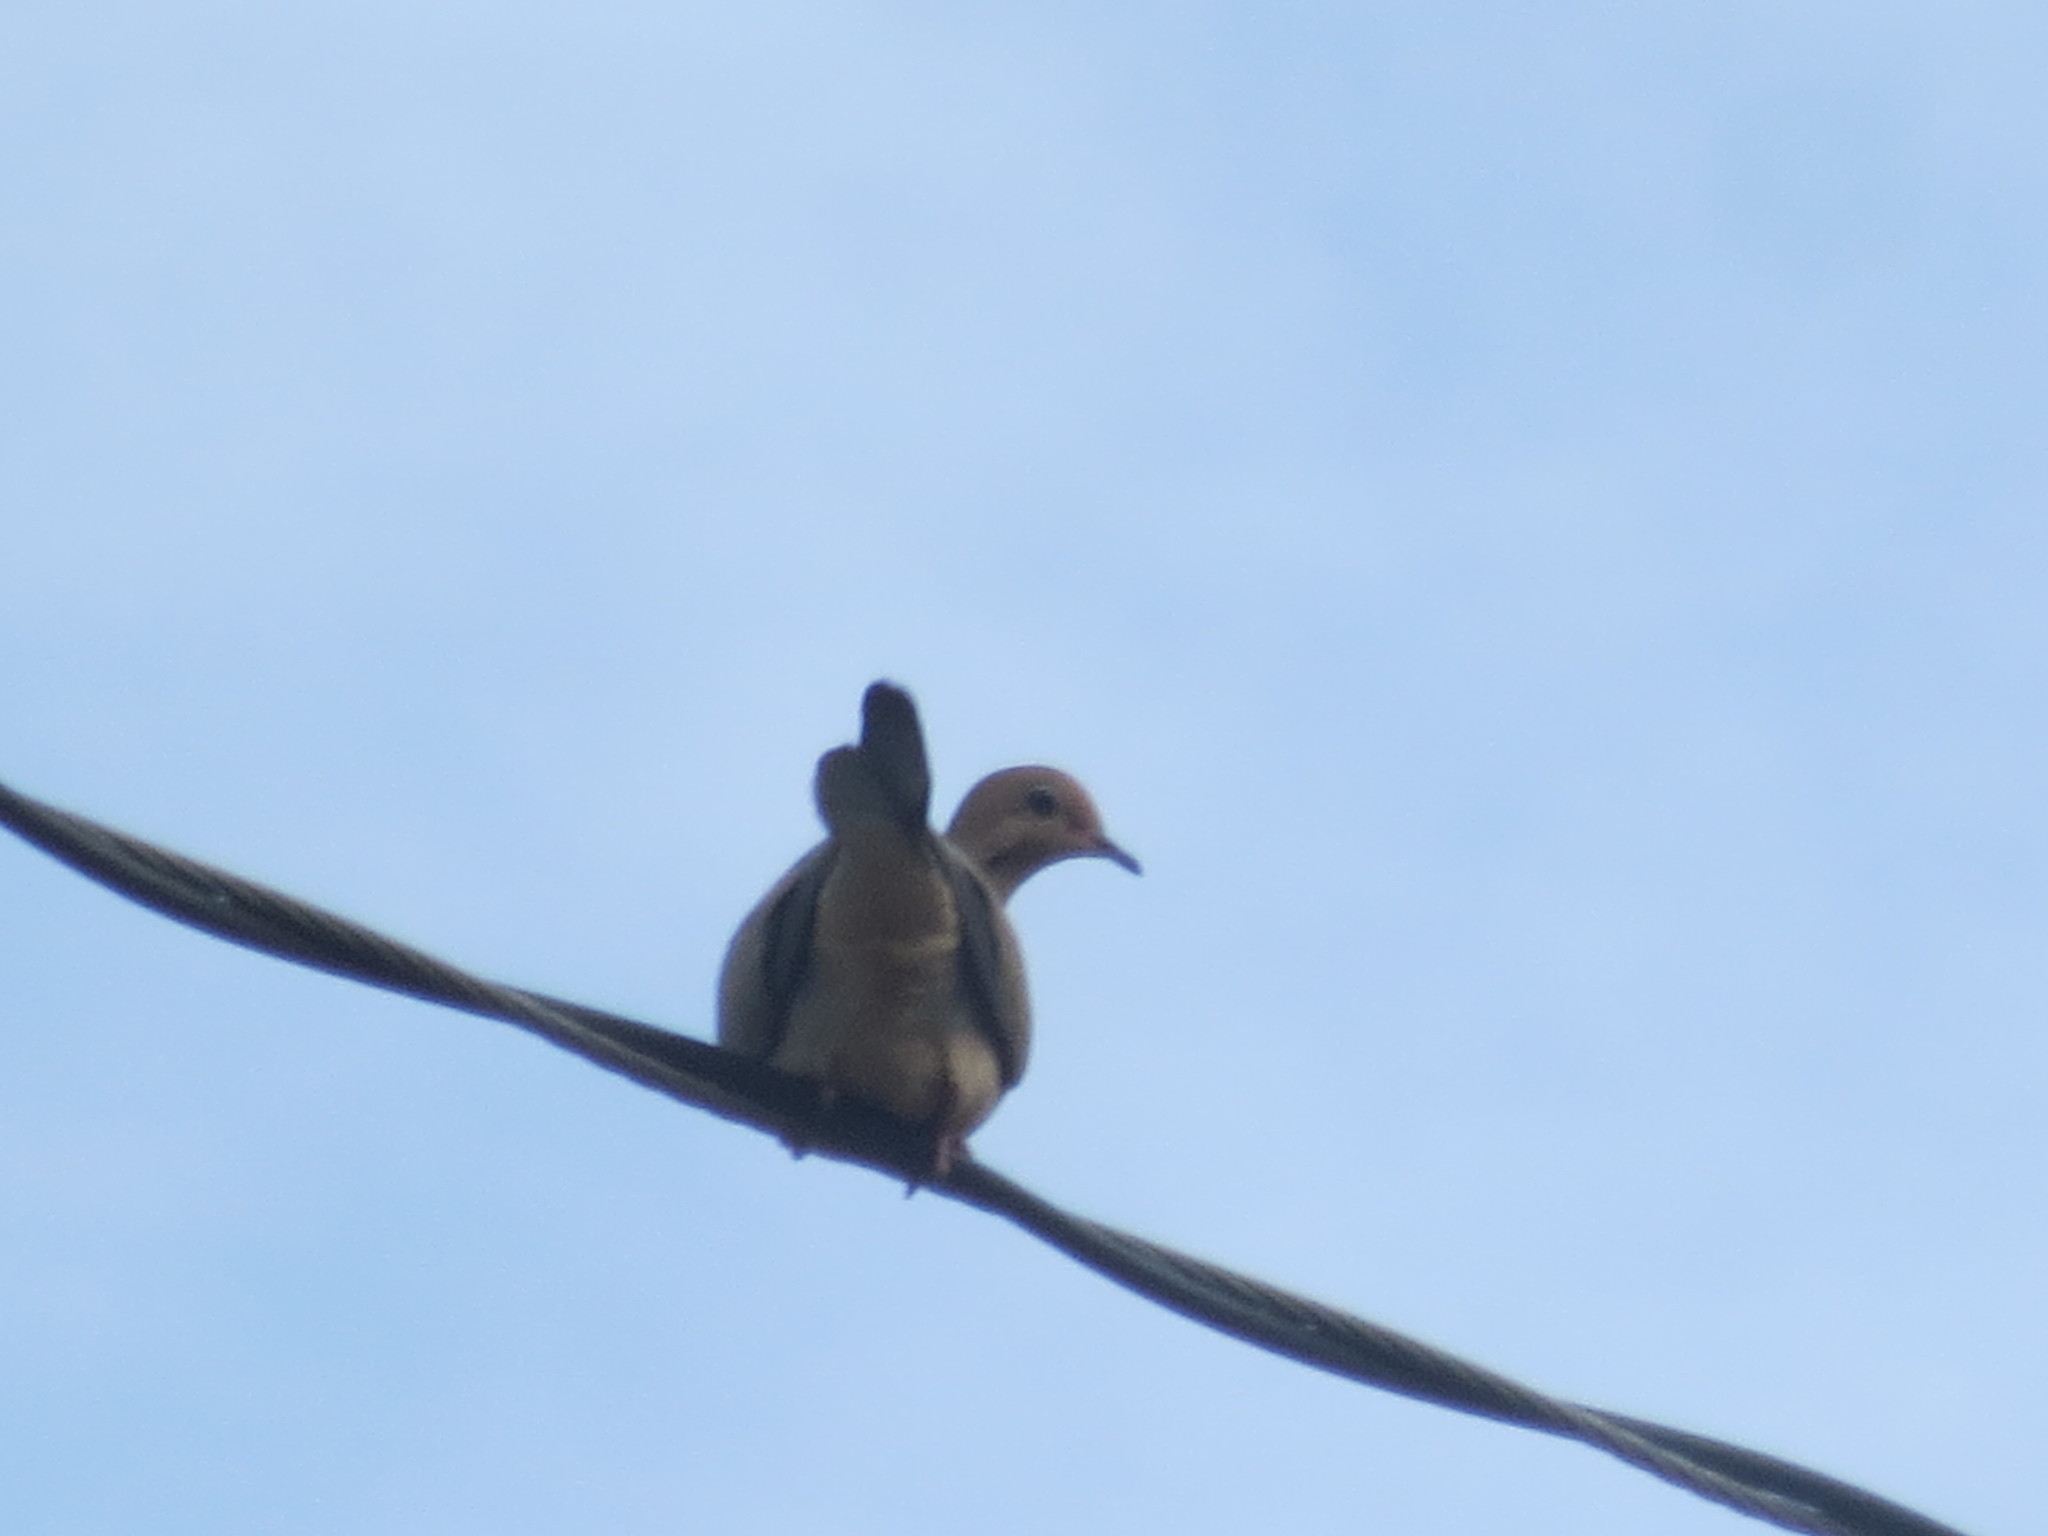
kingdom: Animalia
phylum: Chordata
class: Aves
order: Columbiformes
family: Columbidae
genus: Zenaida
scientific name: Zenaida macroura
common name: Mourning dove
